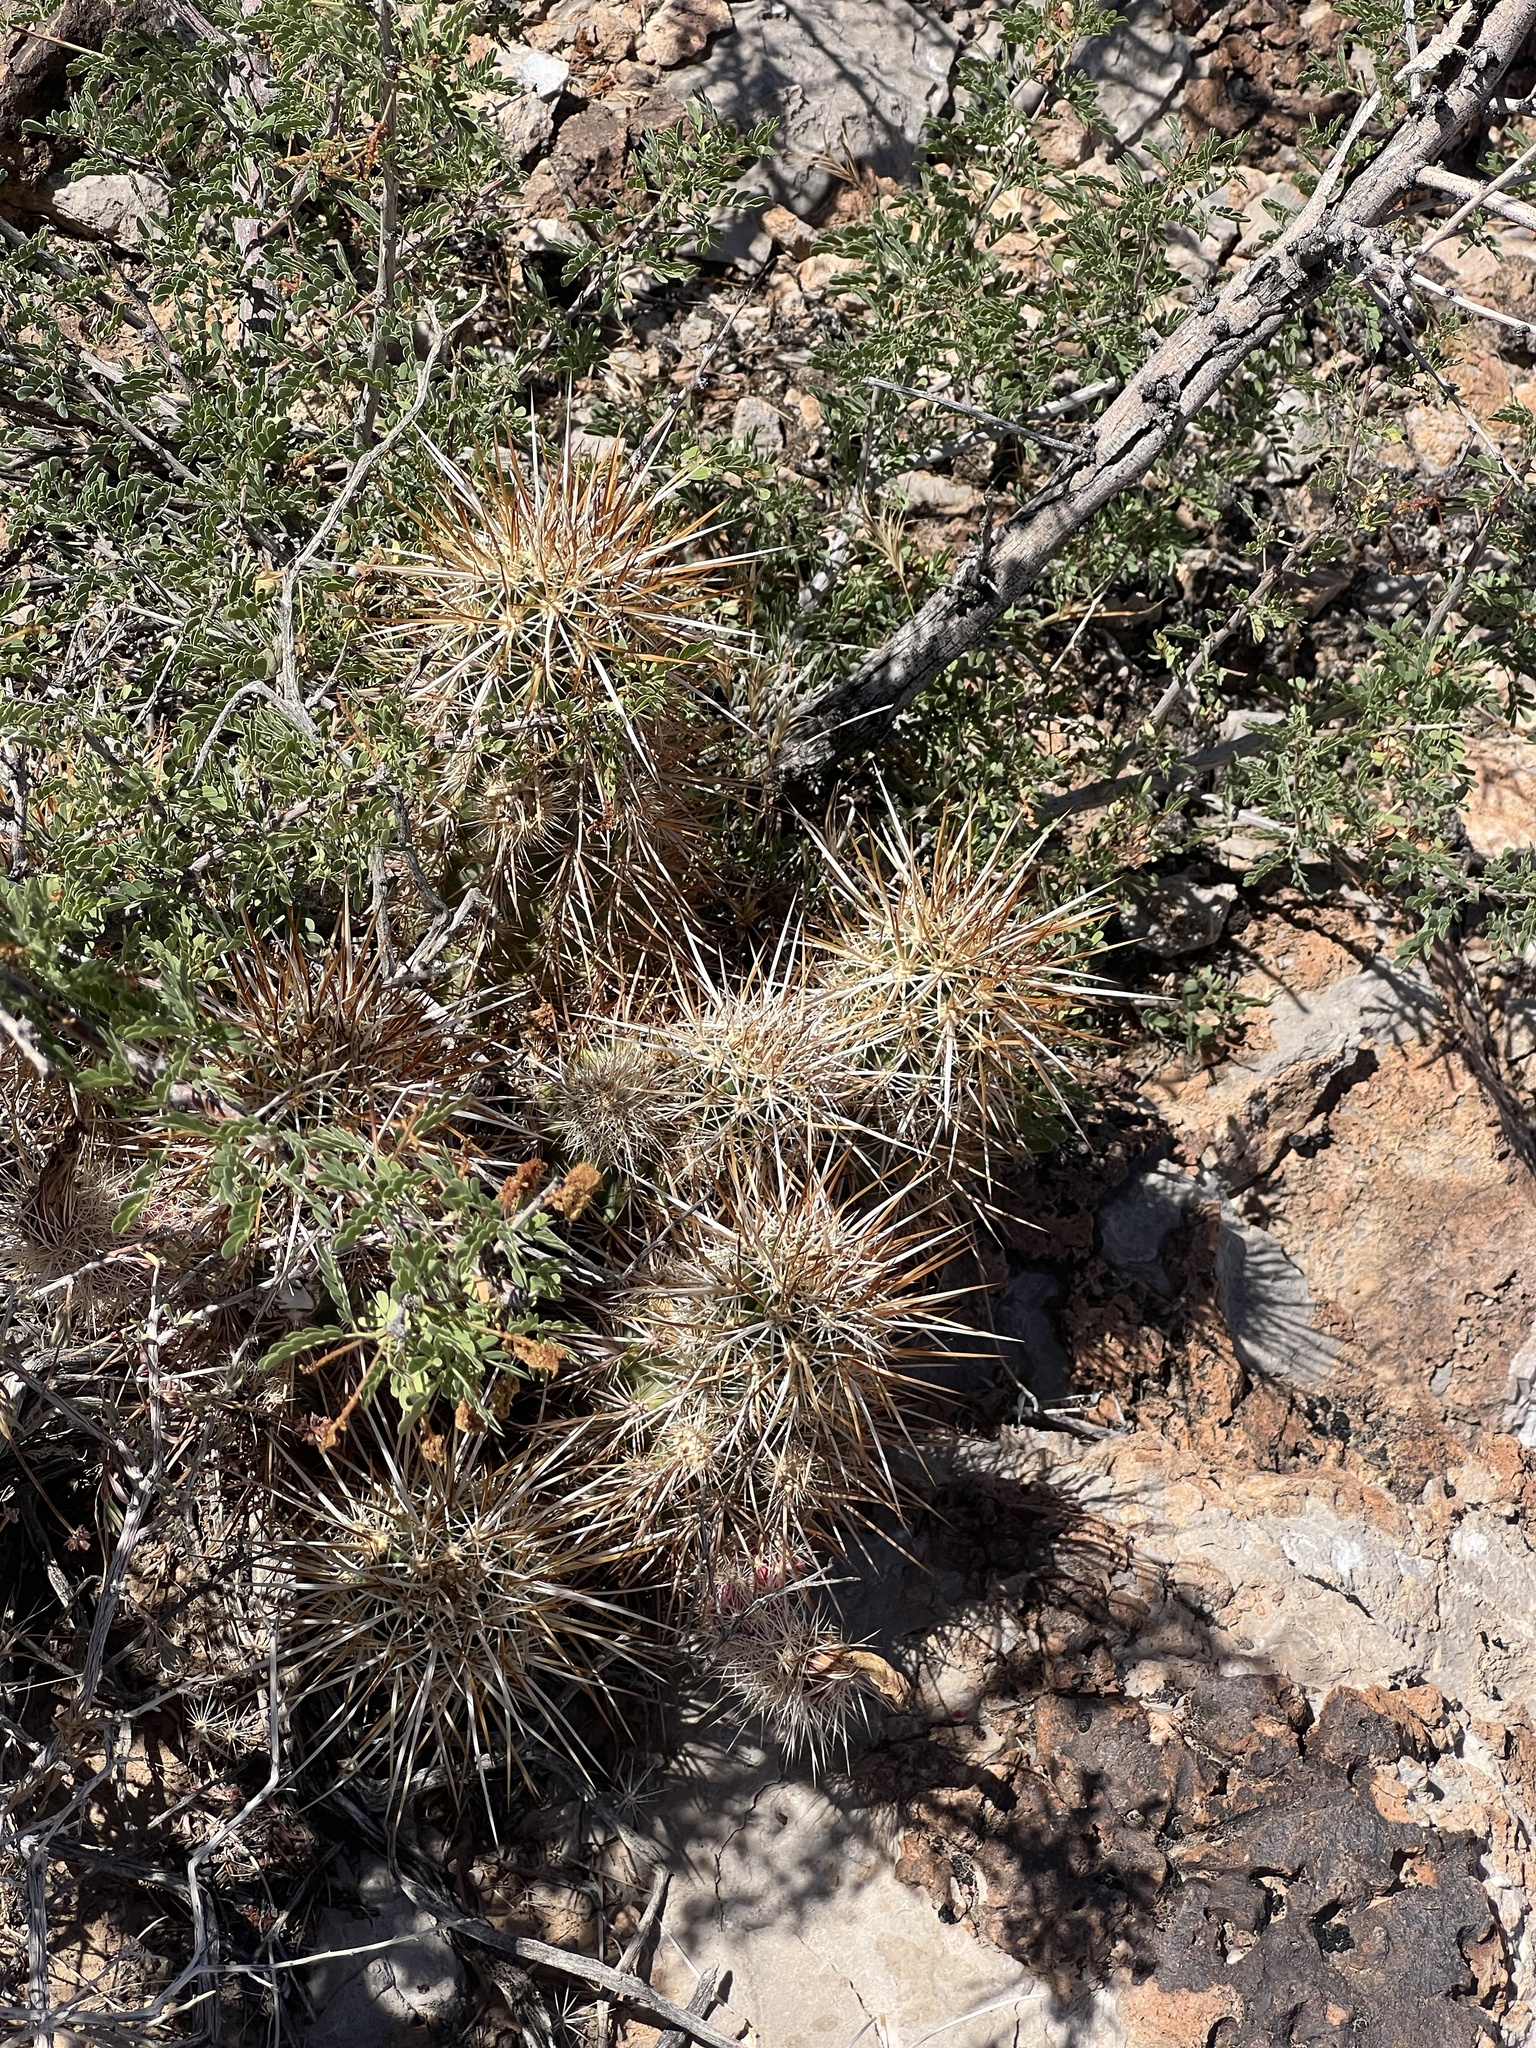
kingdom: Plantae
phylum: Tracheophyta
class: Magnoliopsida
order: Caryophyllales
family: Cactaceae
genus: Echinocereus
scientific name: Echinocereus engelmannii
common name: Engelmann's hedgehog cactus
